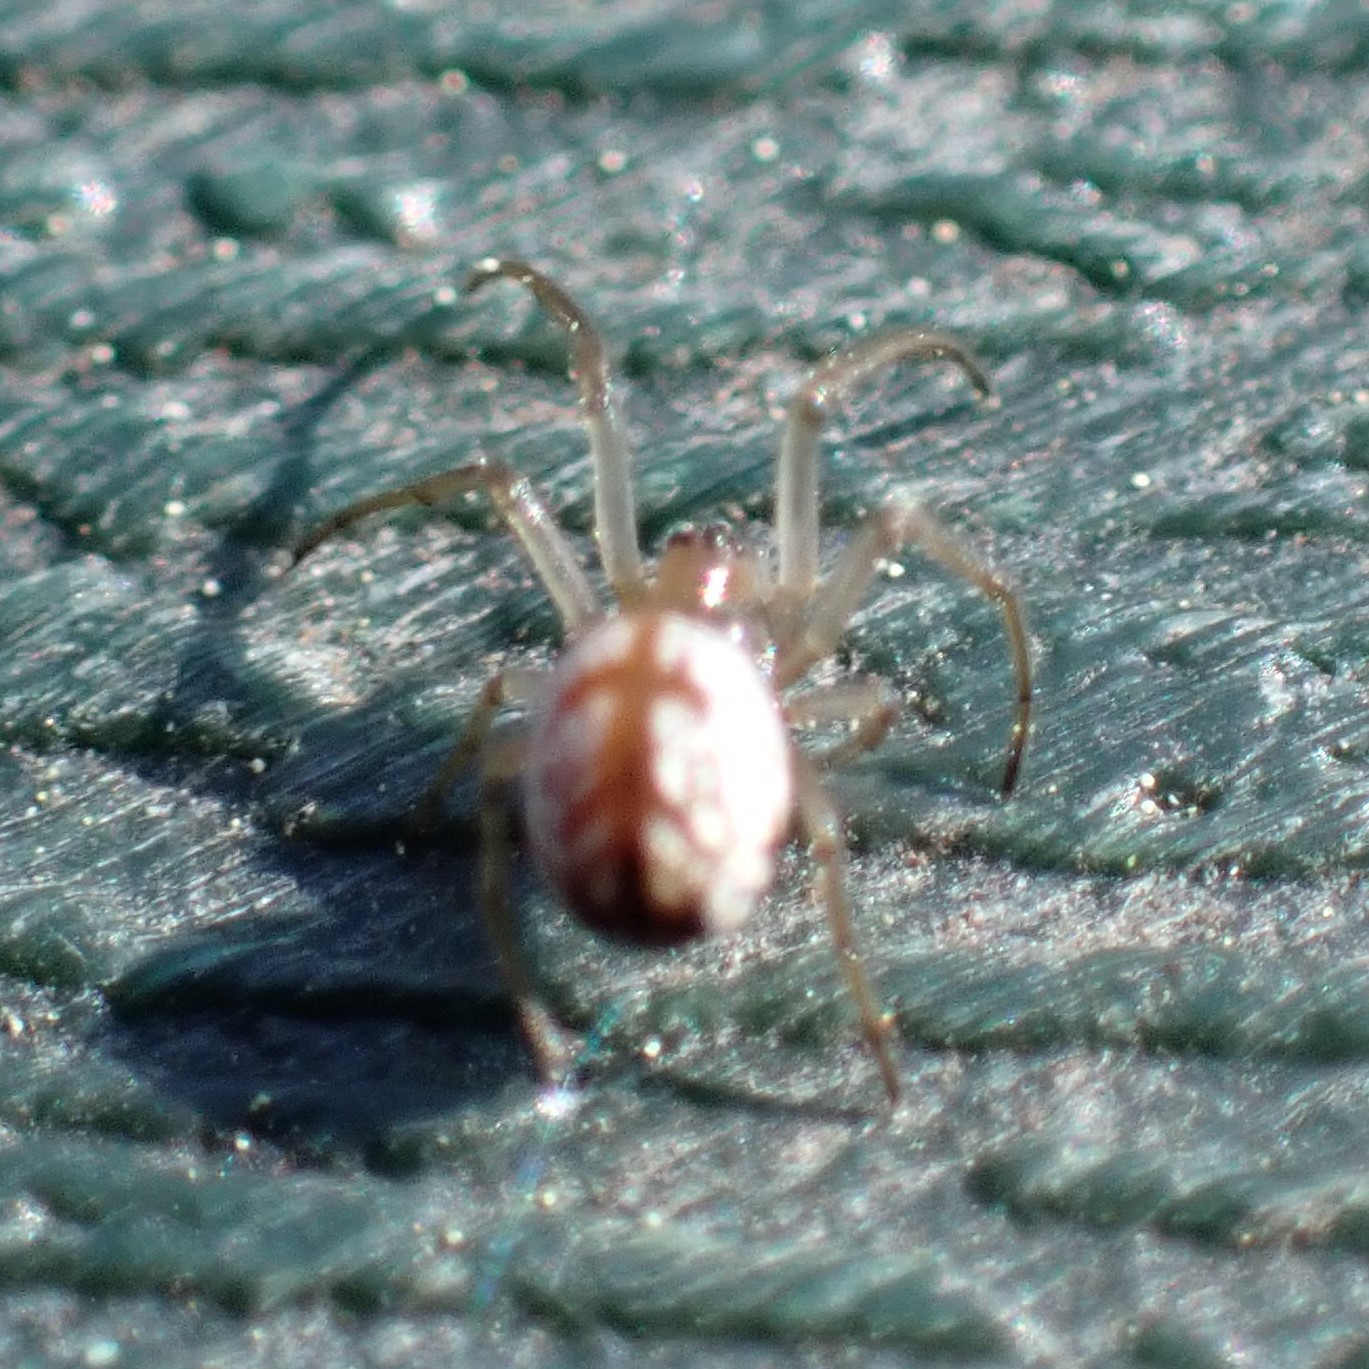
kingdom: Animalia
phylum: Arthropoda
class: Arachnida
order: Araneae
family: Tetragnathidae
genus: Leucauge
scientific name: Leucauge venusta
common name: Longjawed orb weavers
